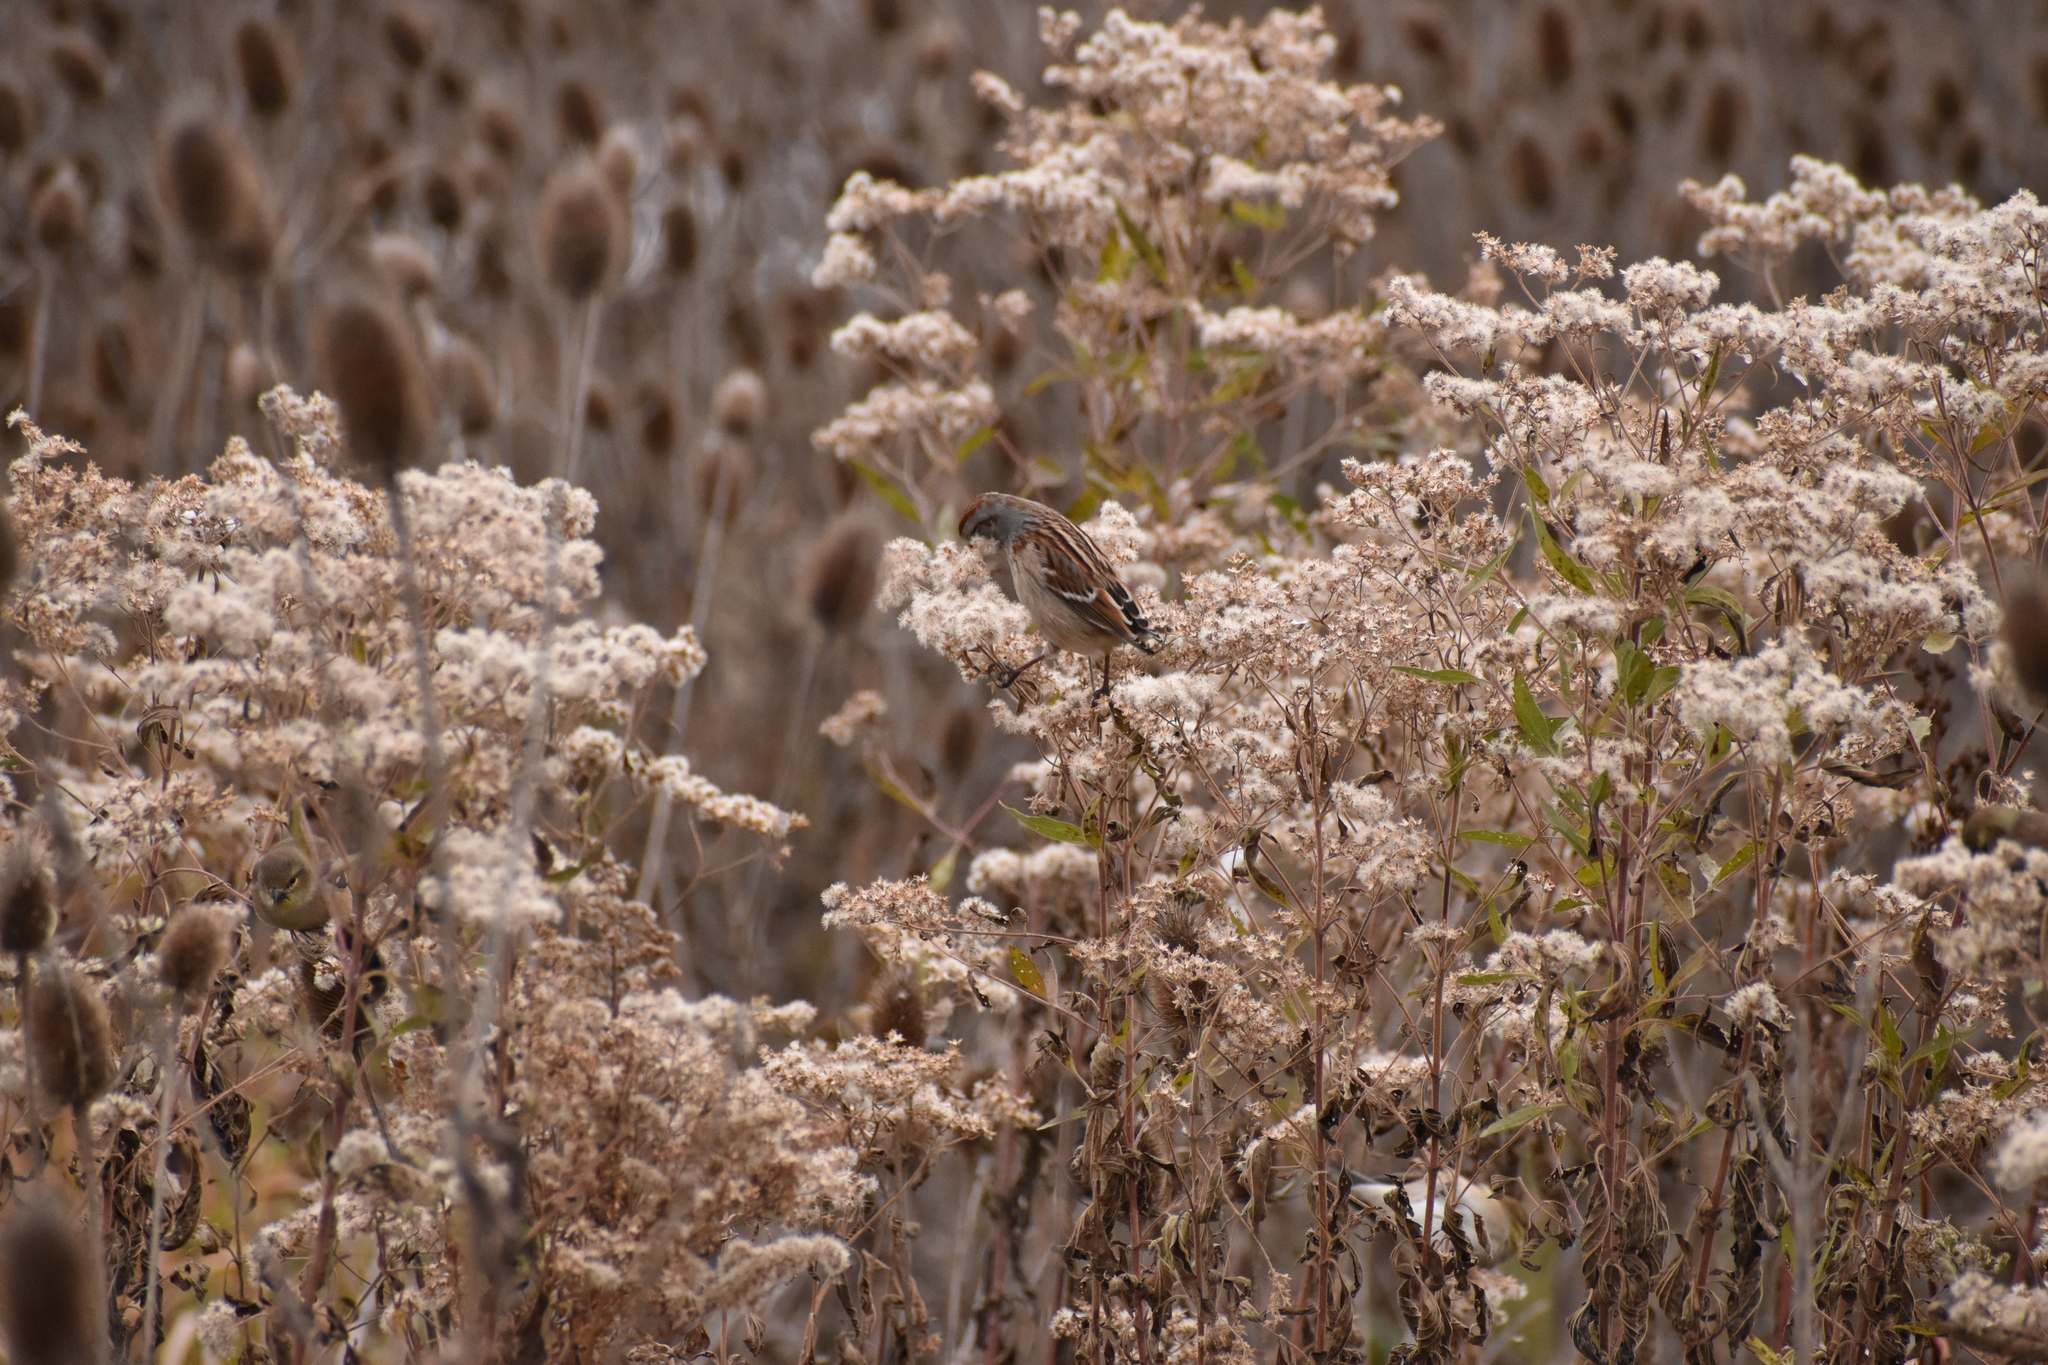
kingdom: Animalia
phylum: Chordata
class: Aves
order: Passeriformes
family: Passerellidae
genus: Spizelloides
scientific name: Spizelloides arborea
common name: American tree sparrow
